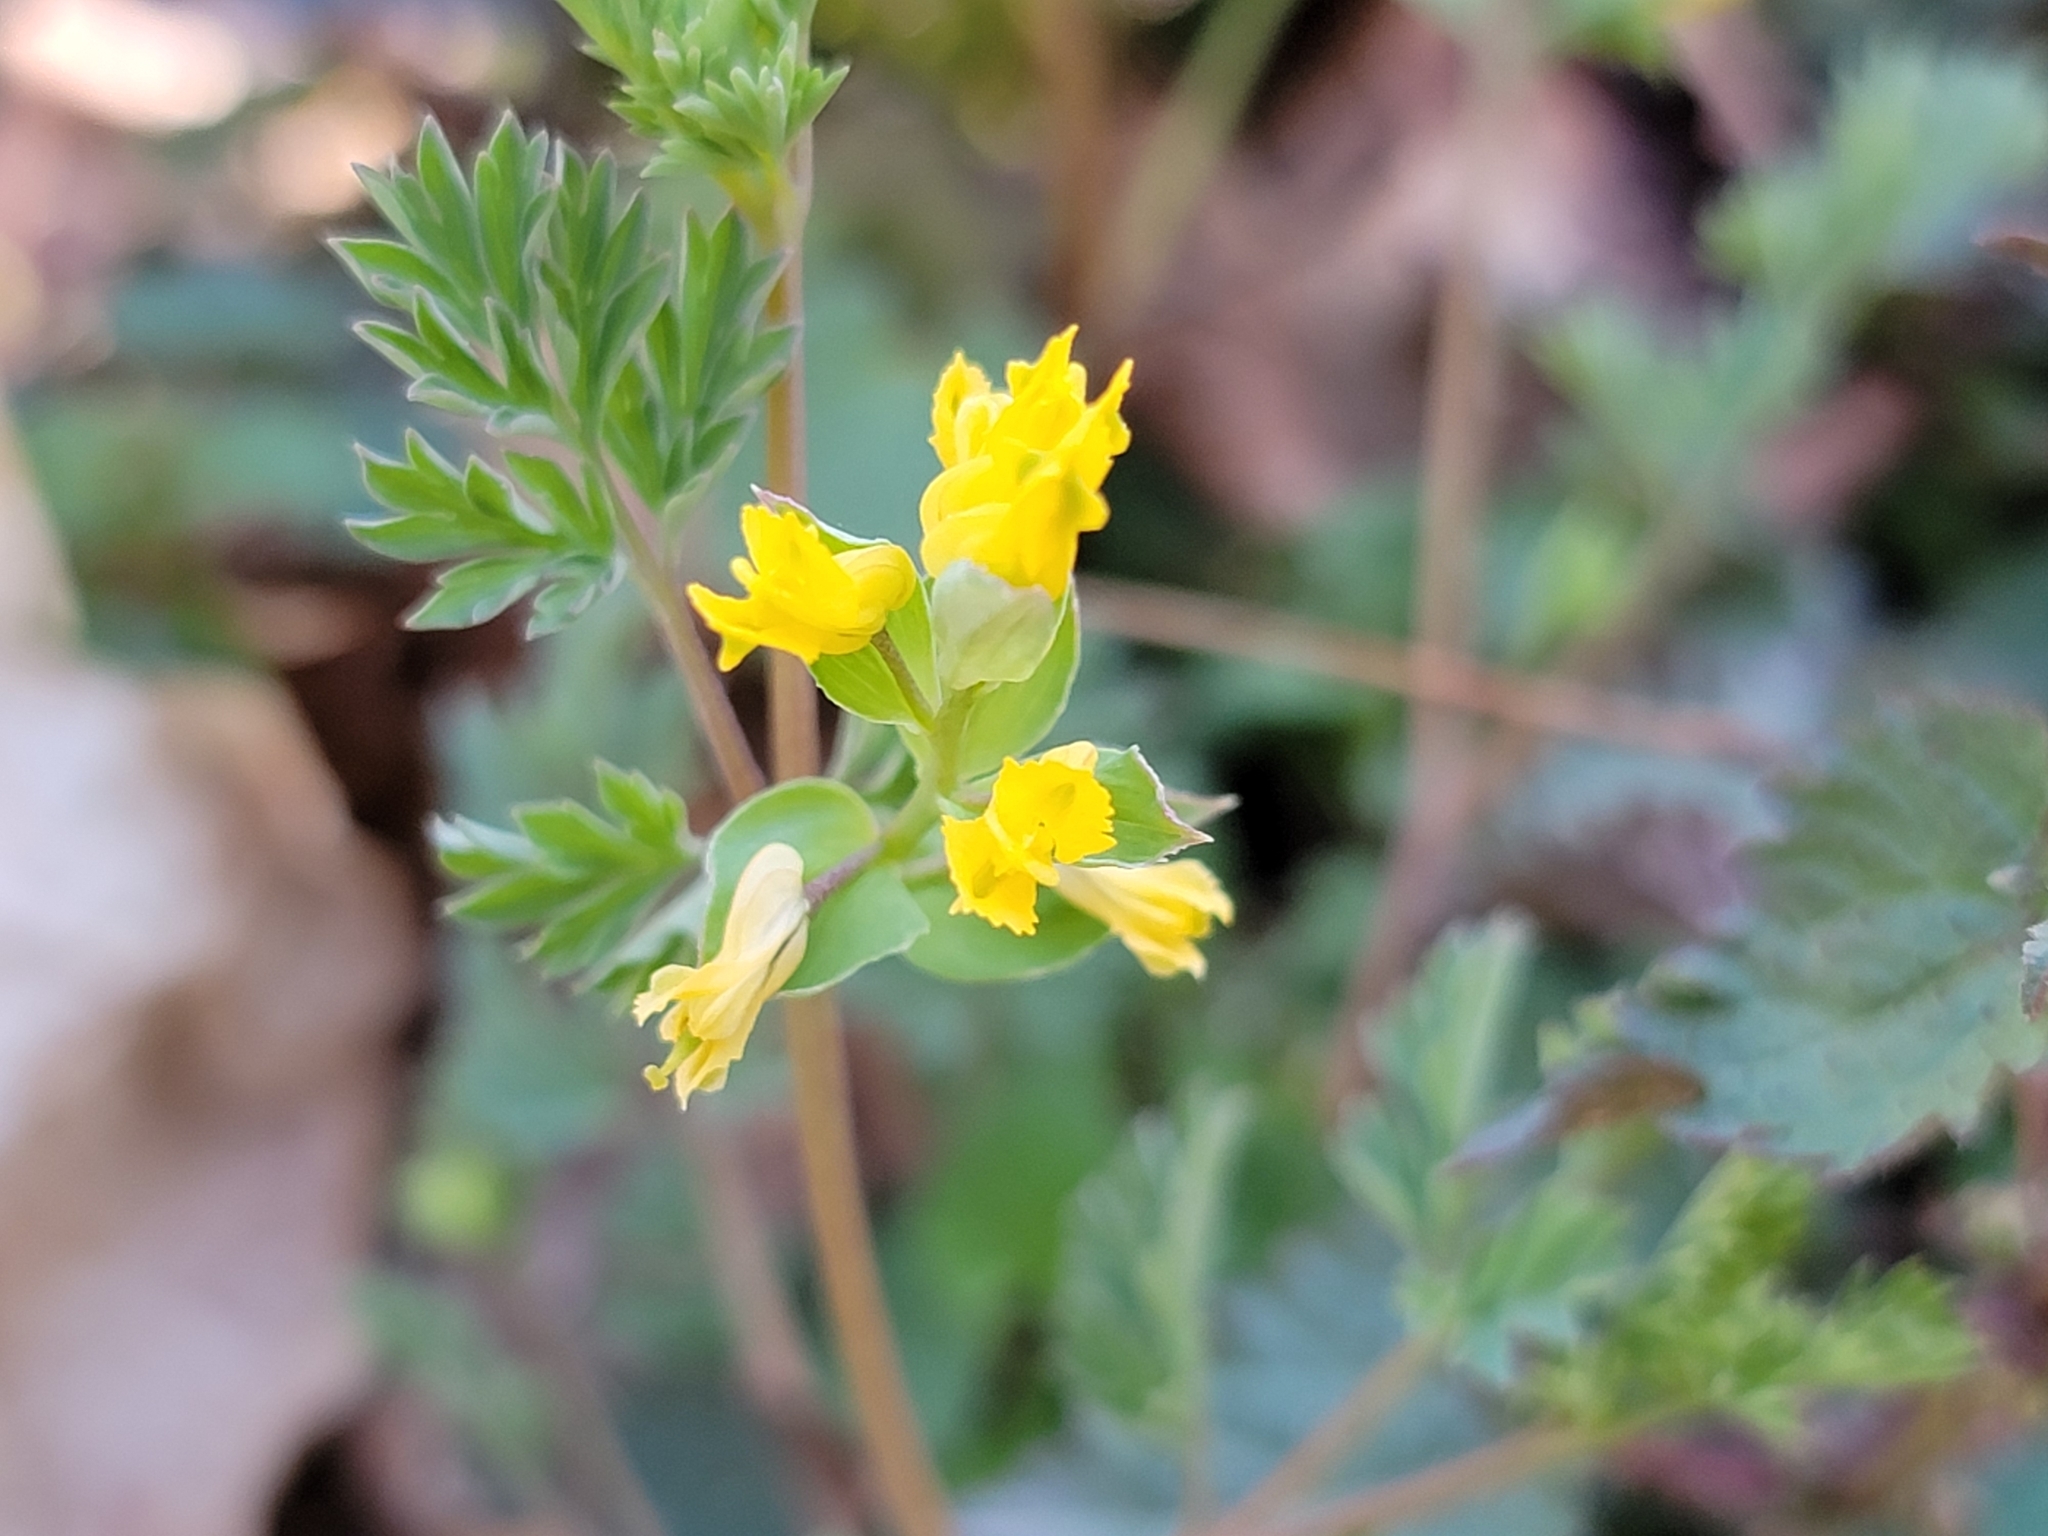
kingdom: Plantae
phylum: Tracheophyta
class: Magnoliopsida
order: Ranunculales
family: Papaveraceae
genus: Corydalis
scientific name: Corydalis flavula
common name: Yellow corydalis
